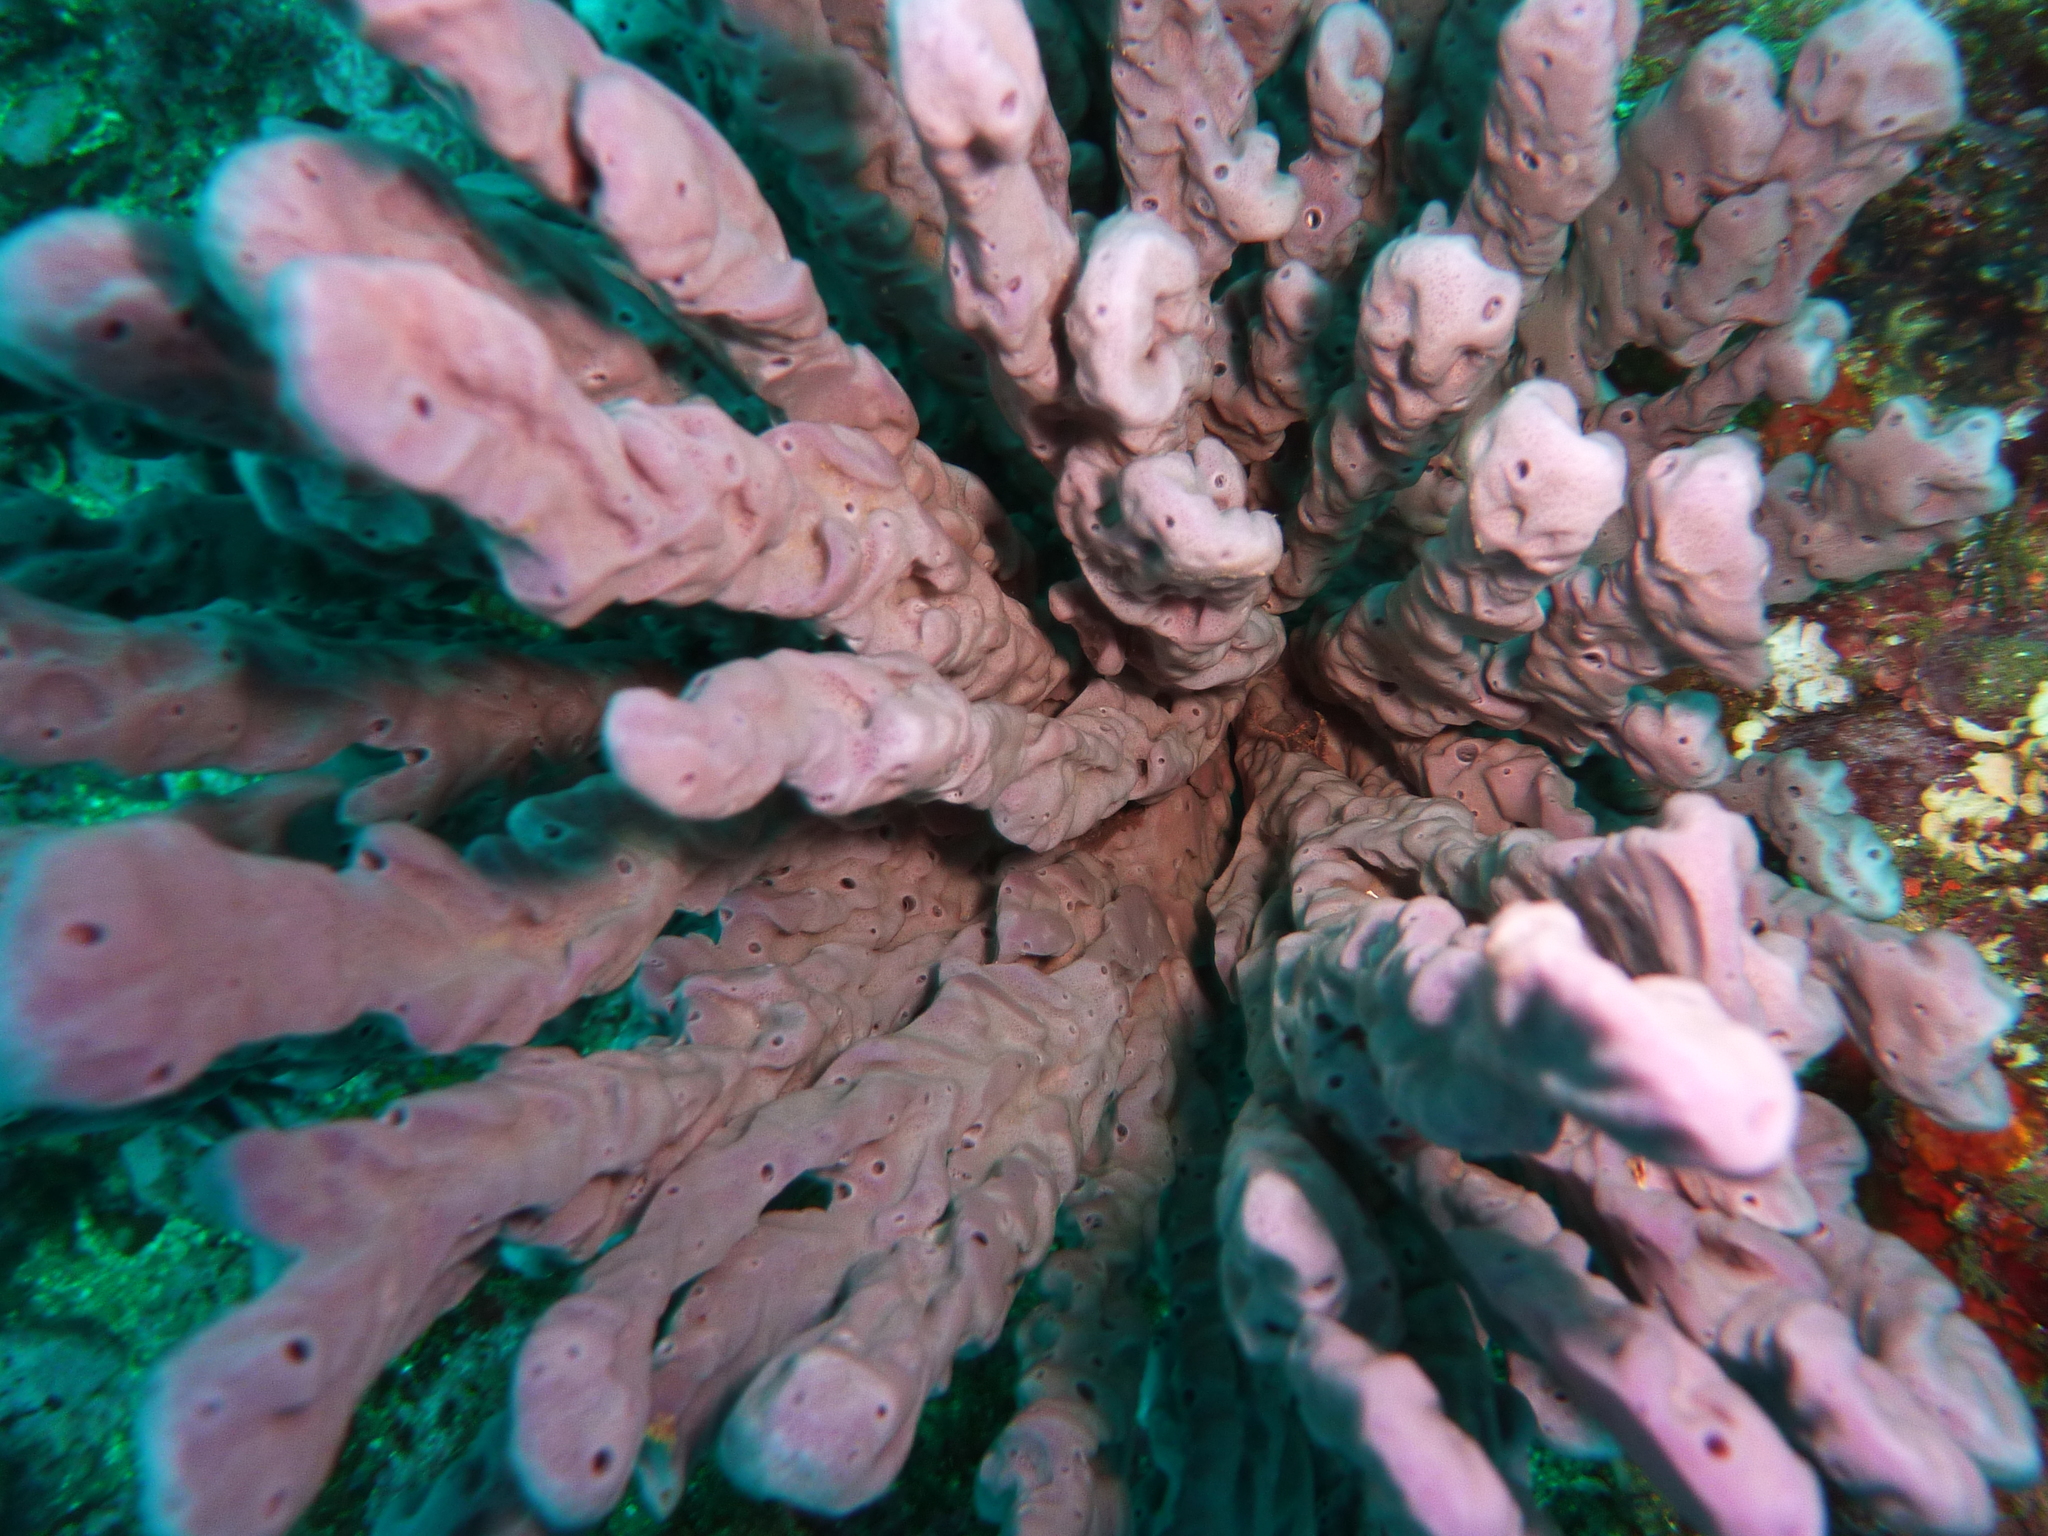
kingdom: Animalia
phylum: Porifera
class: Demospongiae
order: Haplosclerida
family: Callyspongiidae
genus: Callyspongia
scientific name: Callyspongia azurea
